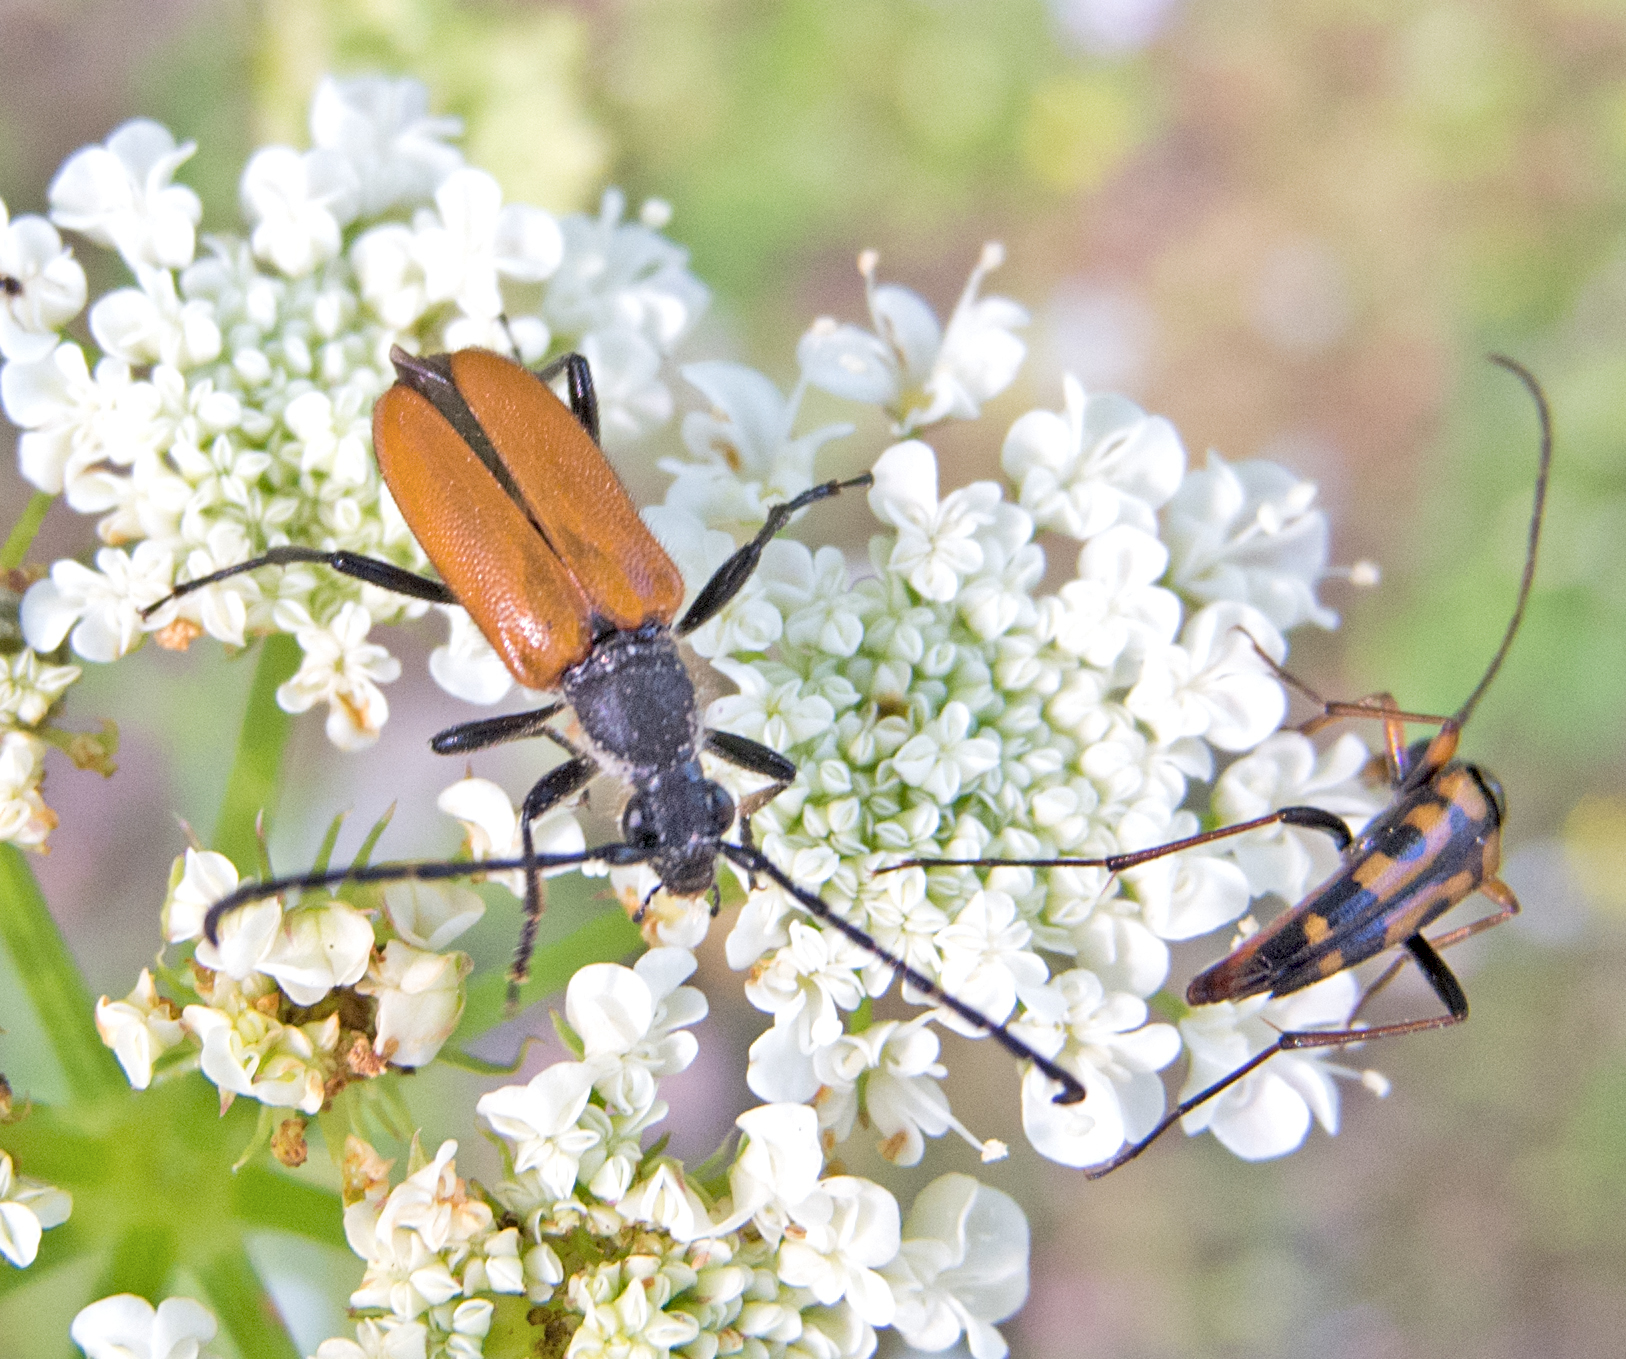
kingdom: Animalia
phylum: Arthropoda
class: Insecta
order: Coleoptera
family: Cerambycidae
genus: Paracorymbia
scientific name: Paracorymbia pallens
